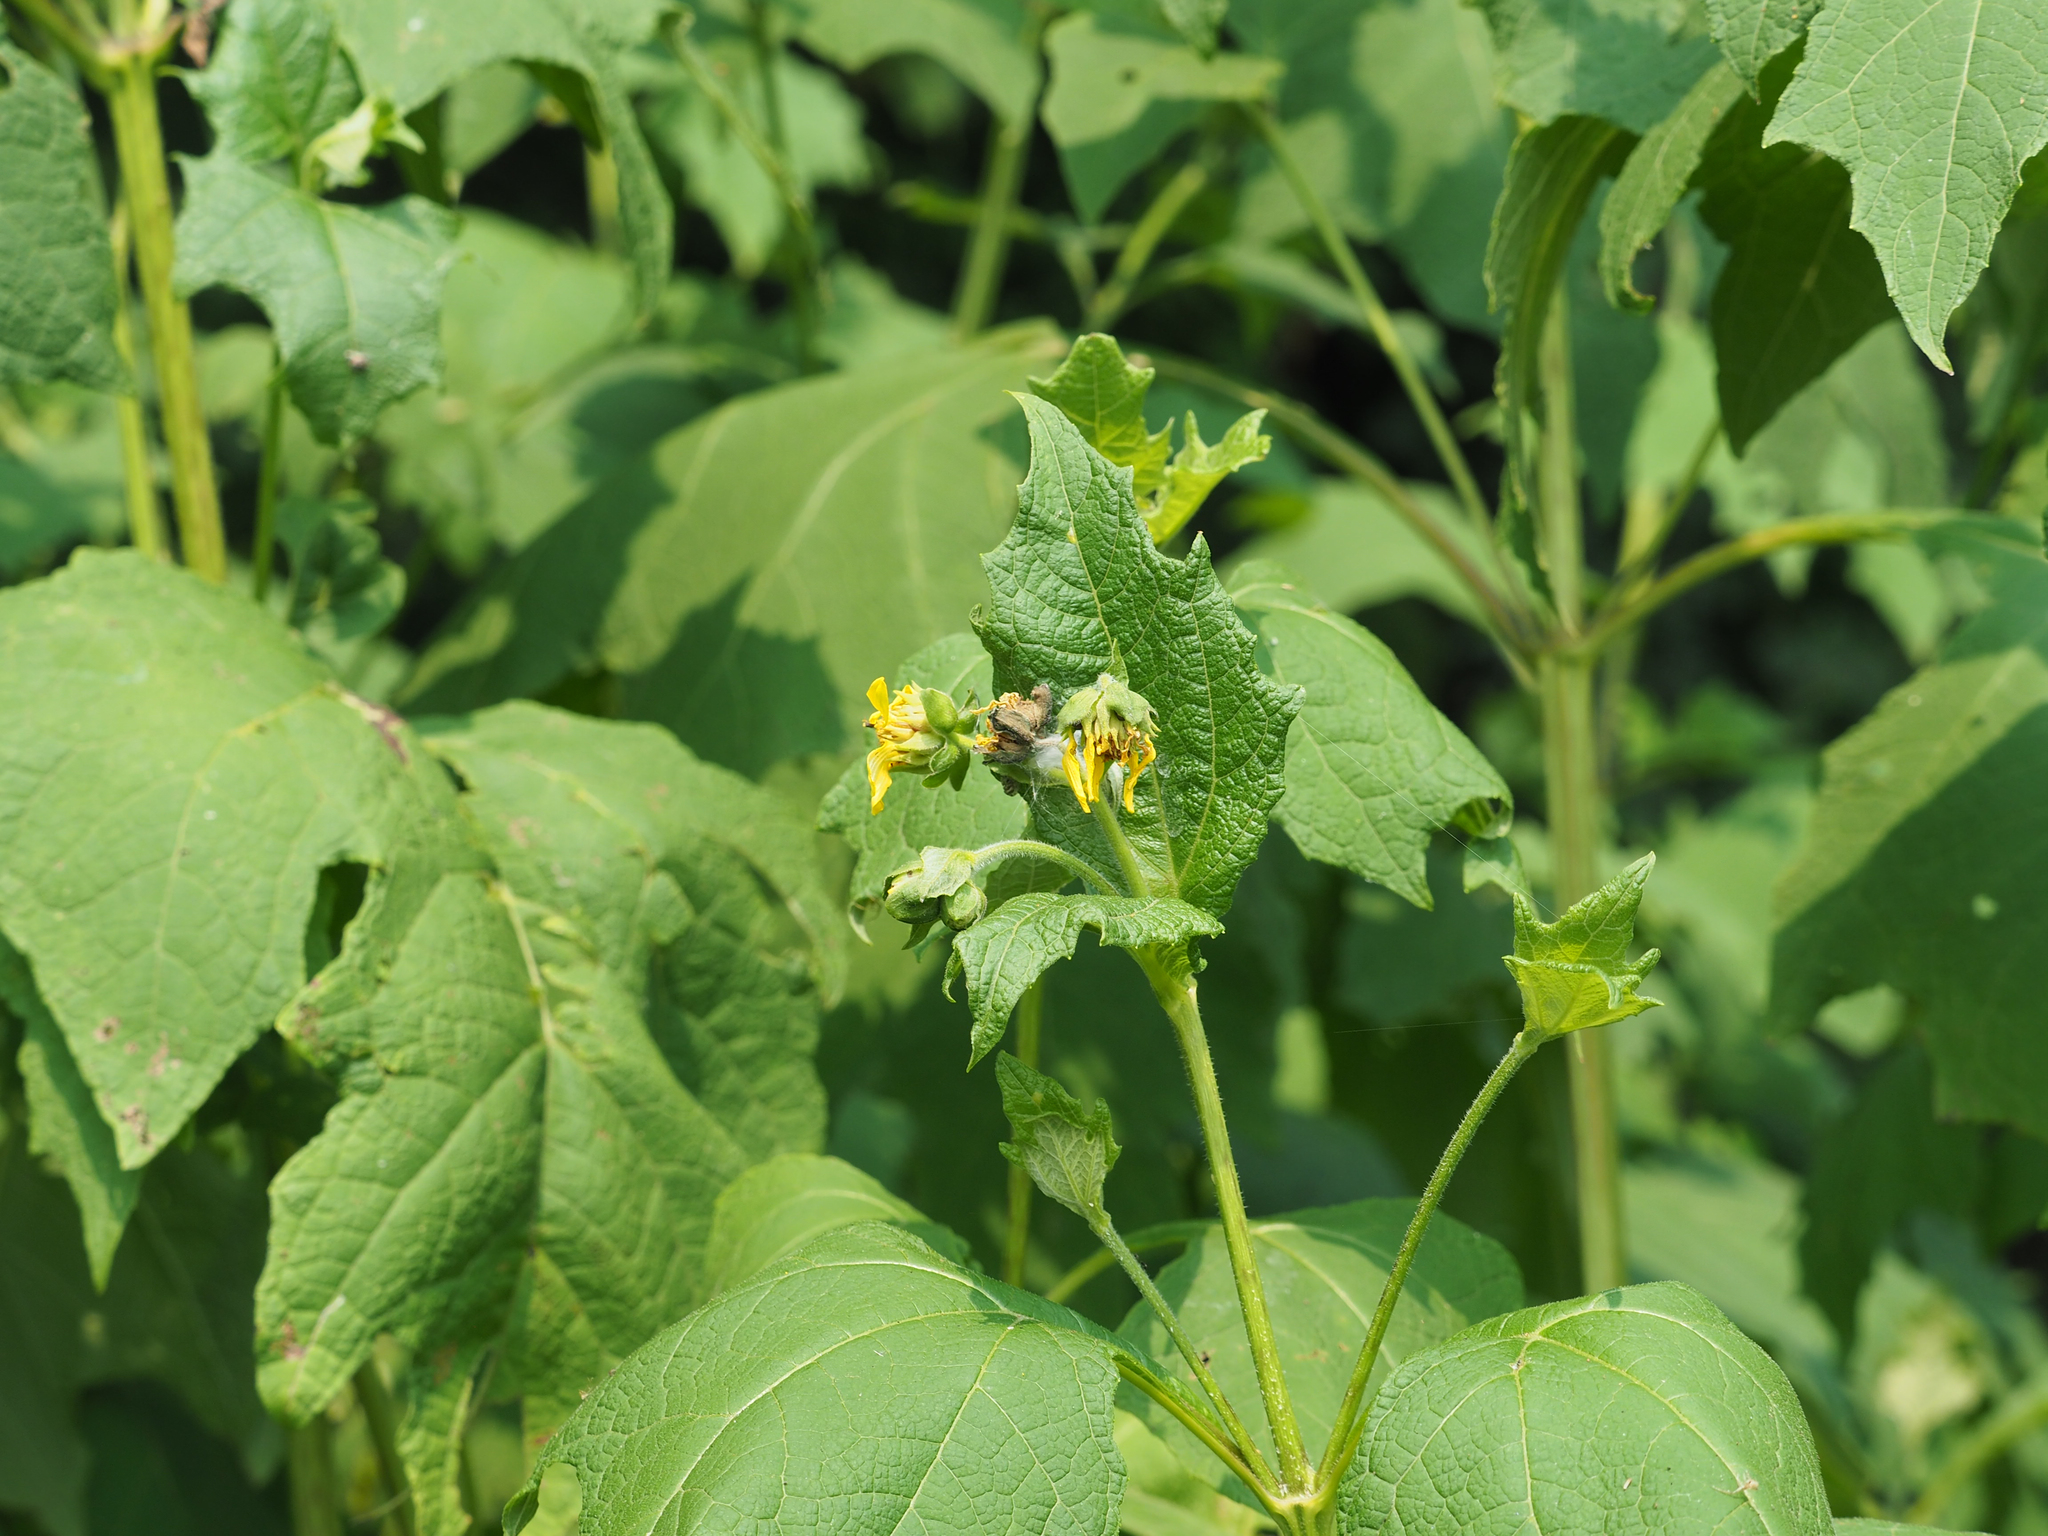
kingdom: Plantae
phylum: Tracheophyta
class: Magnoliopsida
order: Asterales
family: Asteraceae
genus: Smallanthus
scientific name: Smallanthus uvedalia
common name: Bear's-foot
